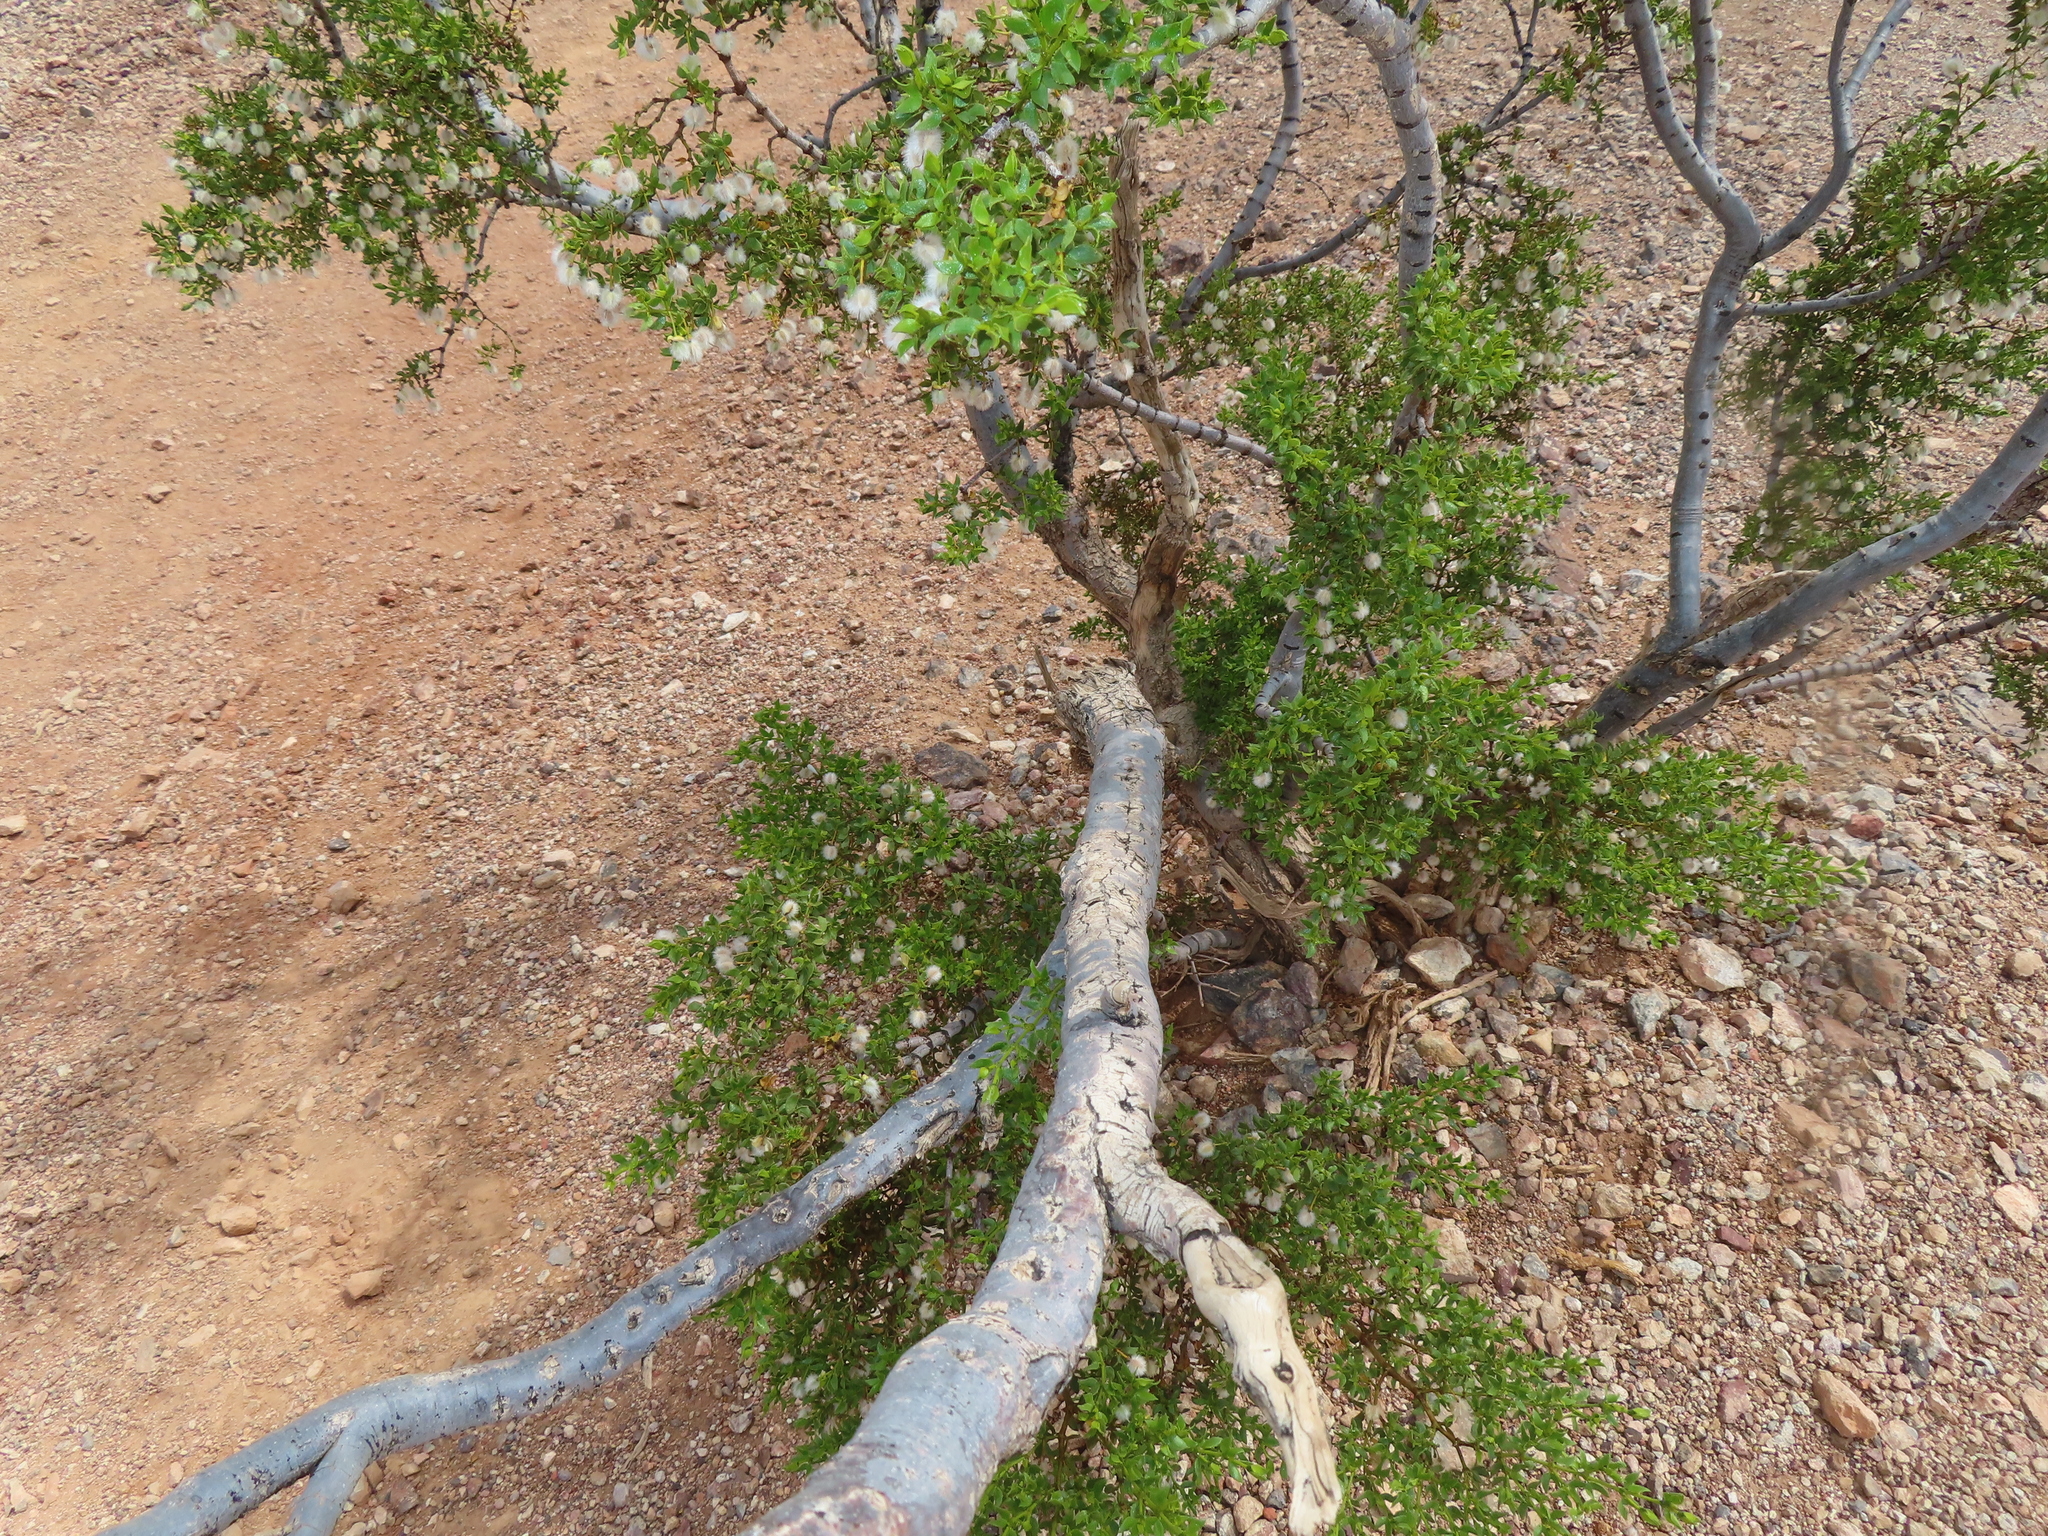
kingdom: Plantae
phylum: Tracheophyta
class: Magnoliopsida
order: Zygophyllales
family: Zygophyllaceae
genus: Larrea
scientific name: Larrea tridentata
